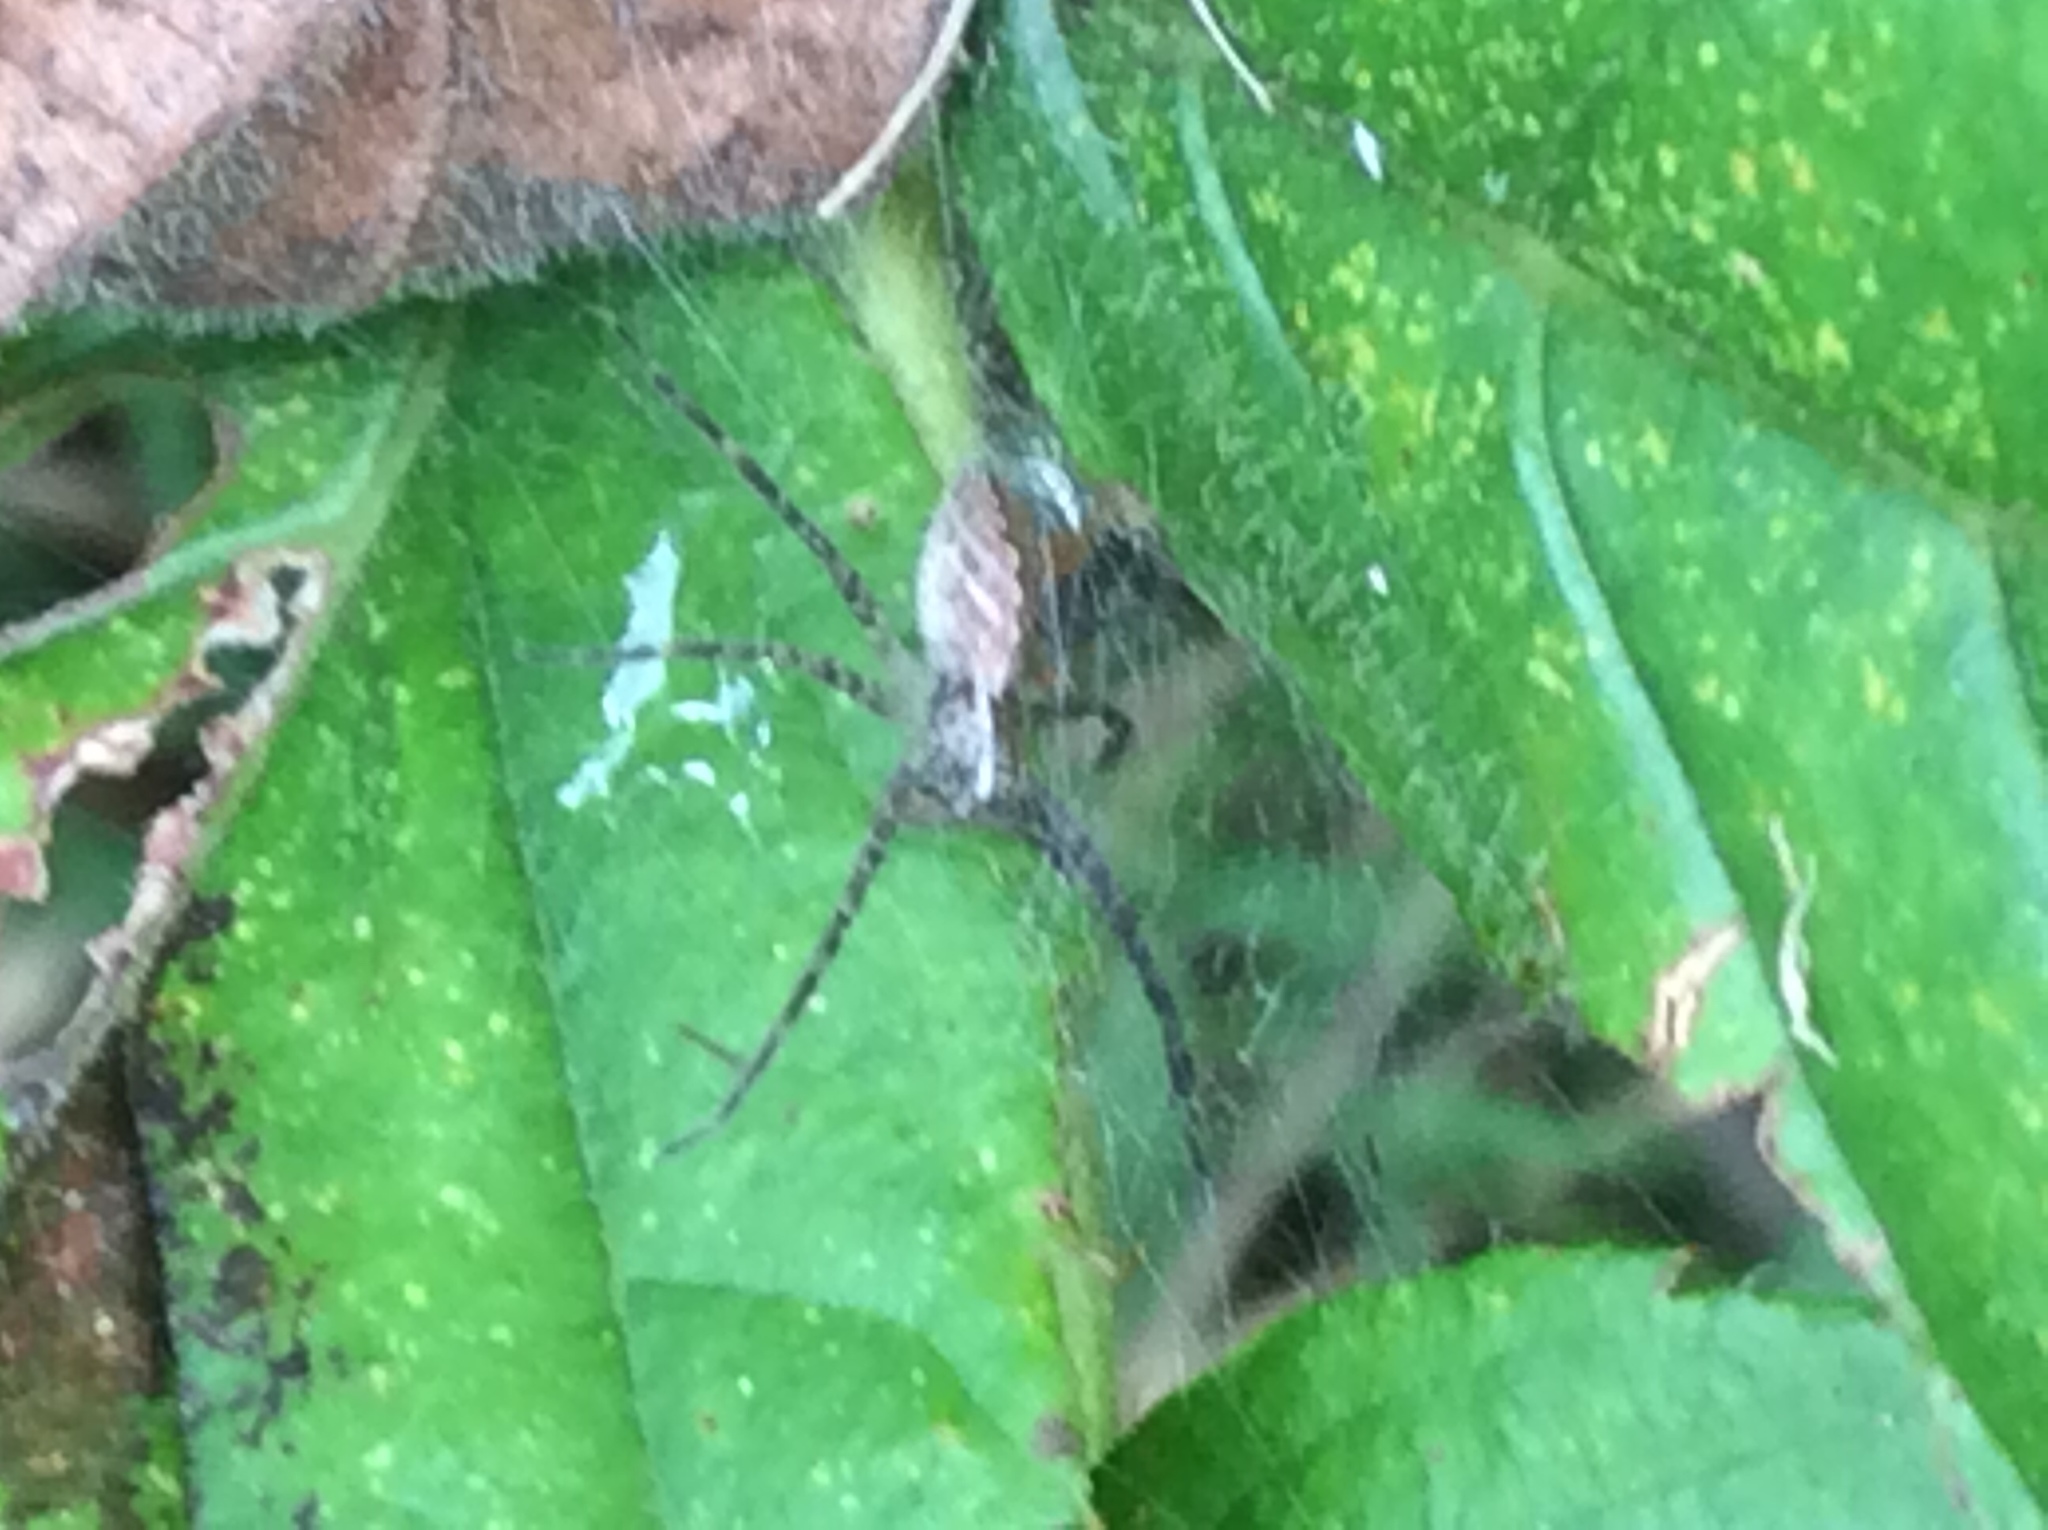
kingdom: Animalia
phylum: Arthropoda
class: Arachnida
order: Araneae
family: Pisauridae
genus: Pisaurina
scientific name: Pisaurina mira
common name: American nursery web spider
